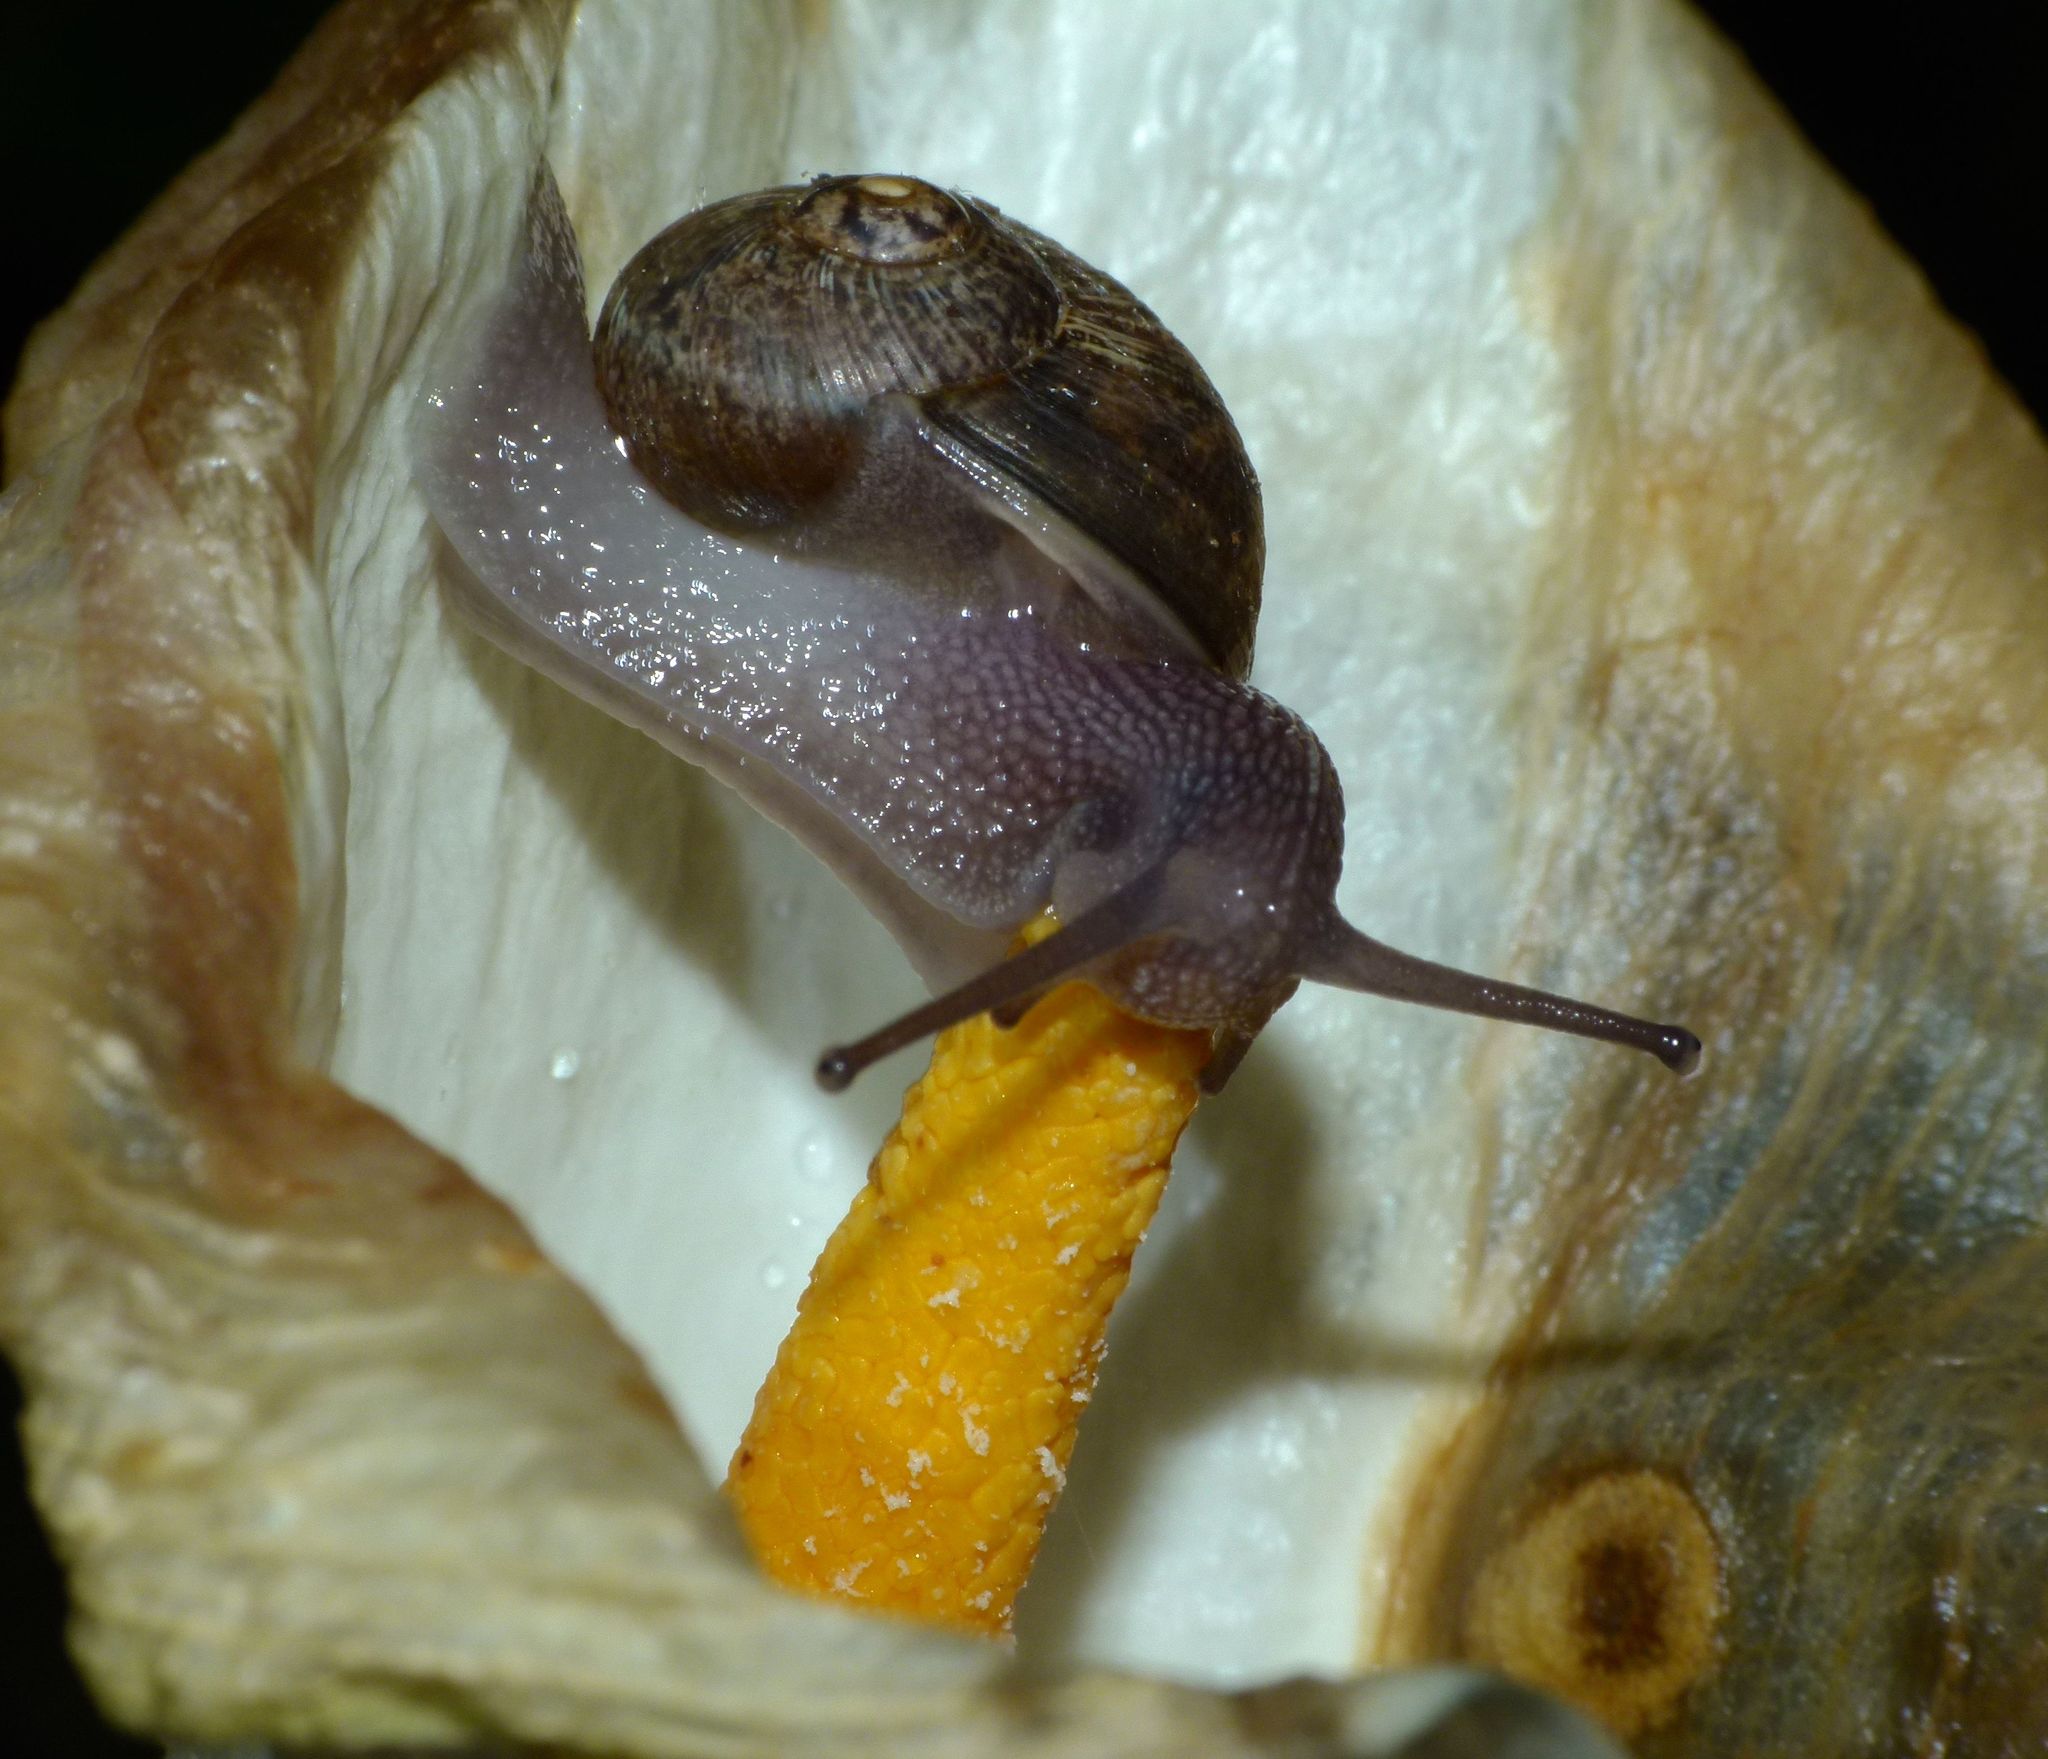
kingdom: Animalia
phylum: Mollusca
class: Gastropoda
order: Stylommatophora
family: Helicidae
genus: Cornu
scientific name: Cornu aspersum
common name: Brown garden snail
